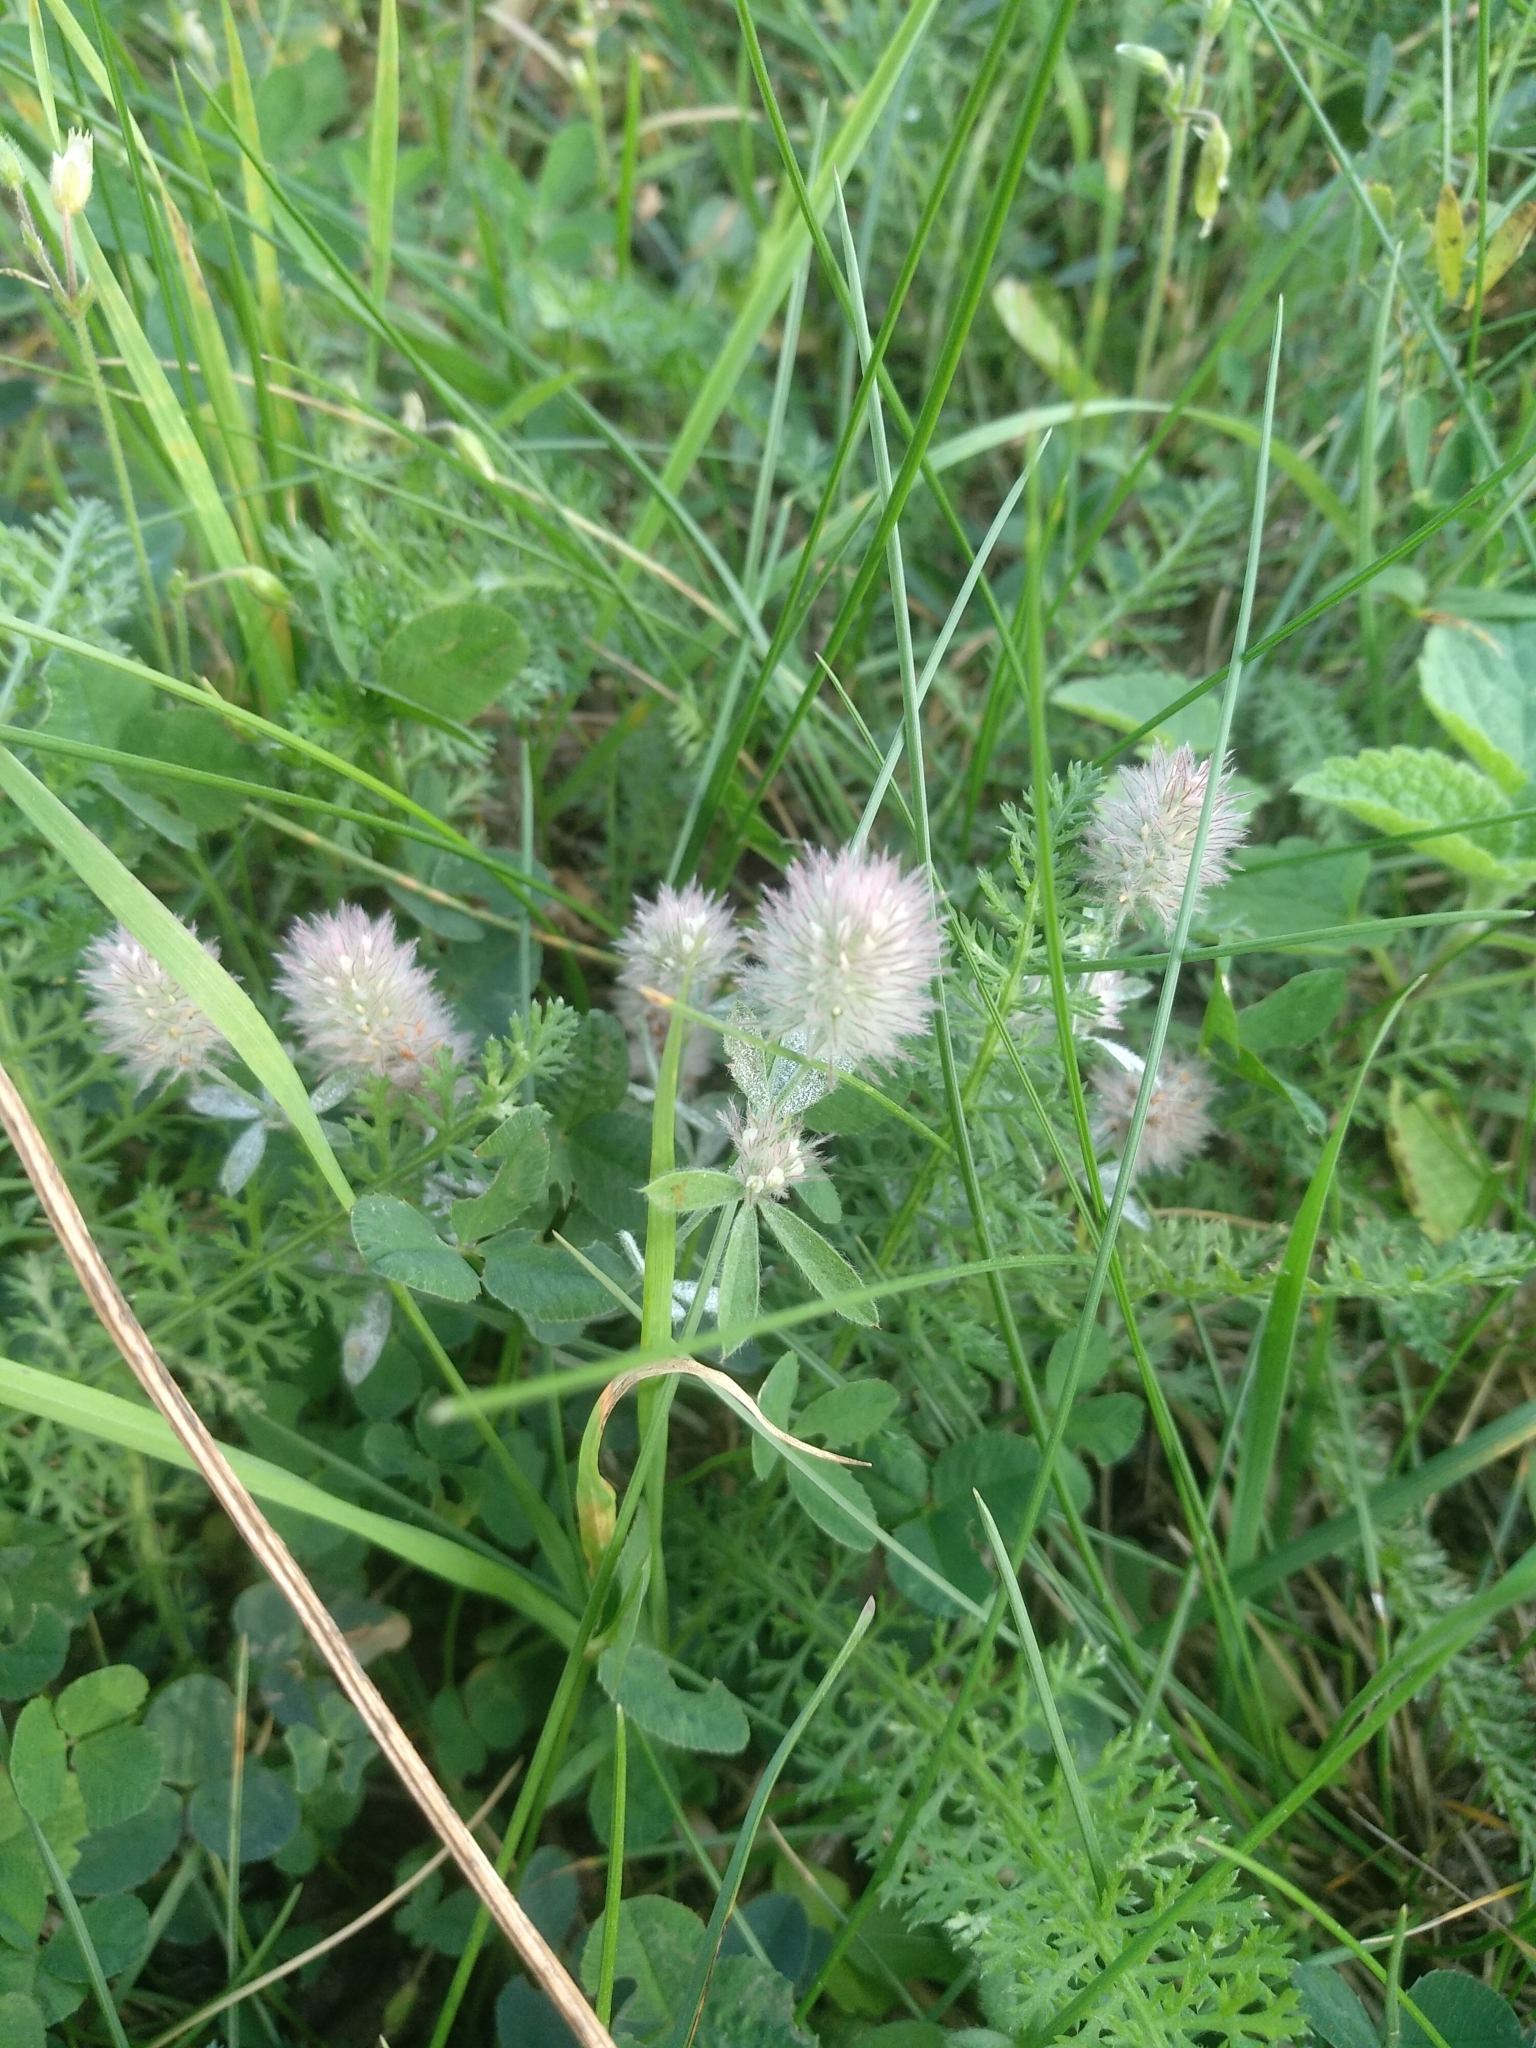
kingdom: Plantae
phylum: Tracheophyta
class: Magnoliopsida
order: Fabales
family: Fabaceae
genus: Trifolium
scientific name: Trifolium arvense
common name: Hare's-foot clover
